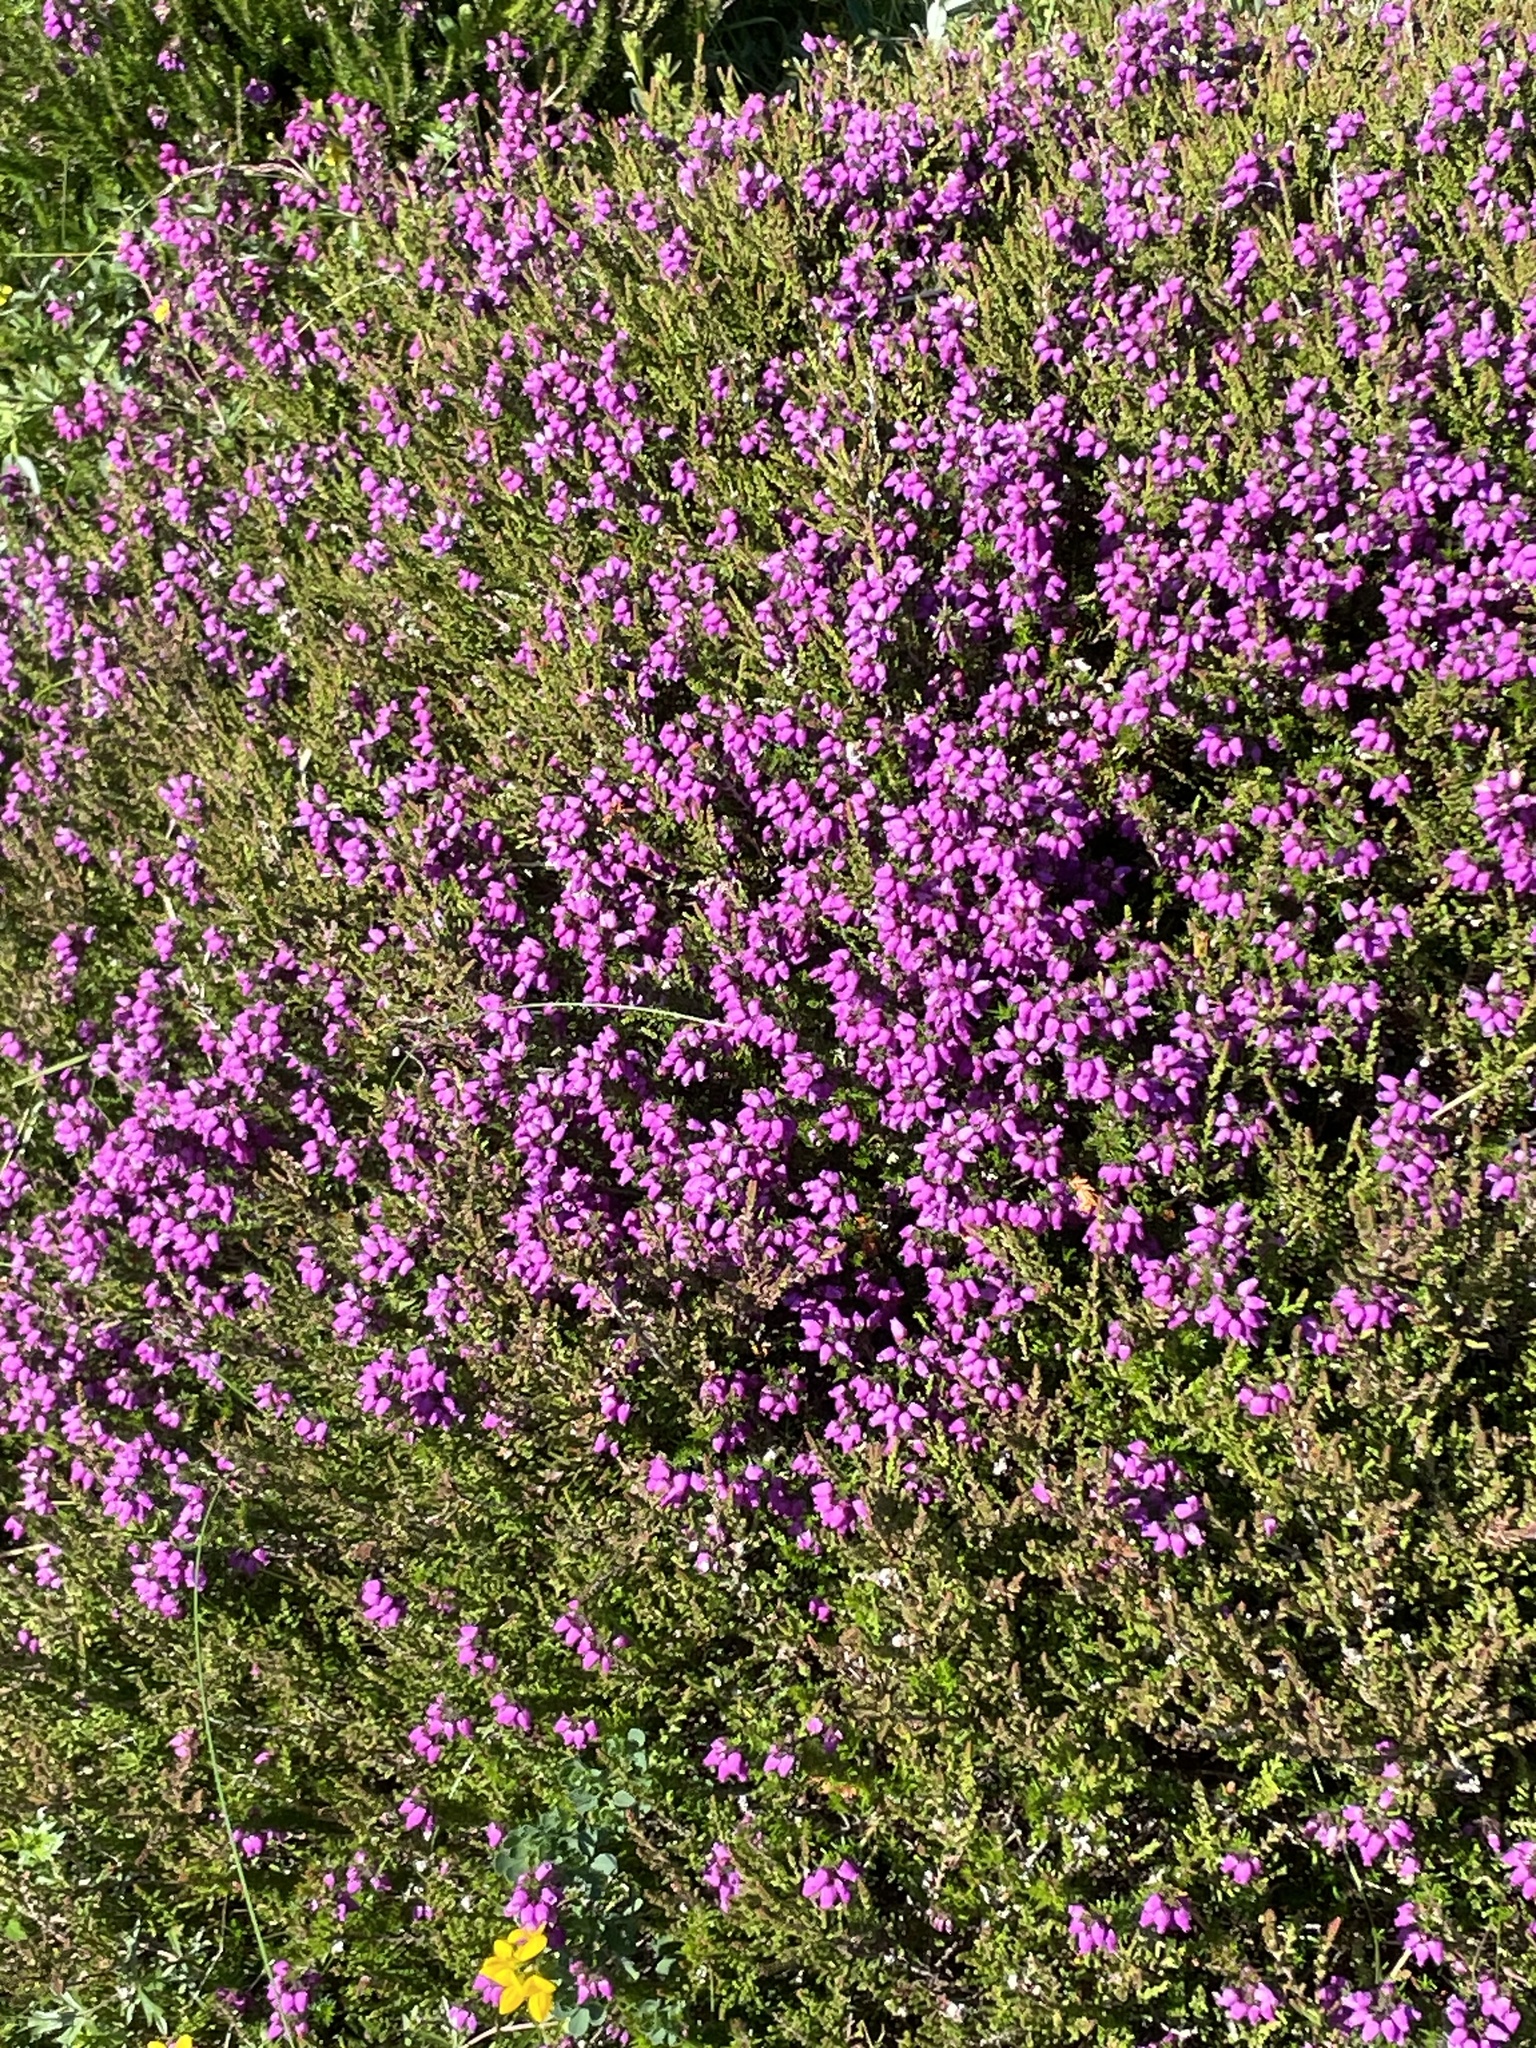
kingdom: Plantae
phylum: Tracheophyta
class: Magnoliopsida
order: Ericales
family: Ericaceae
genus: Erica
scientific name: Erica cinerea
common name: Bell heather
